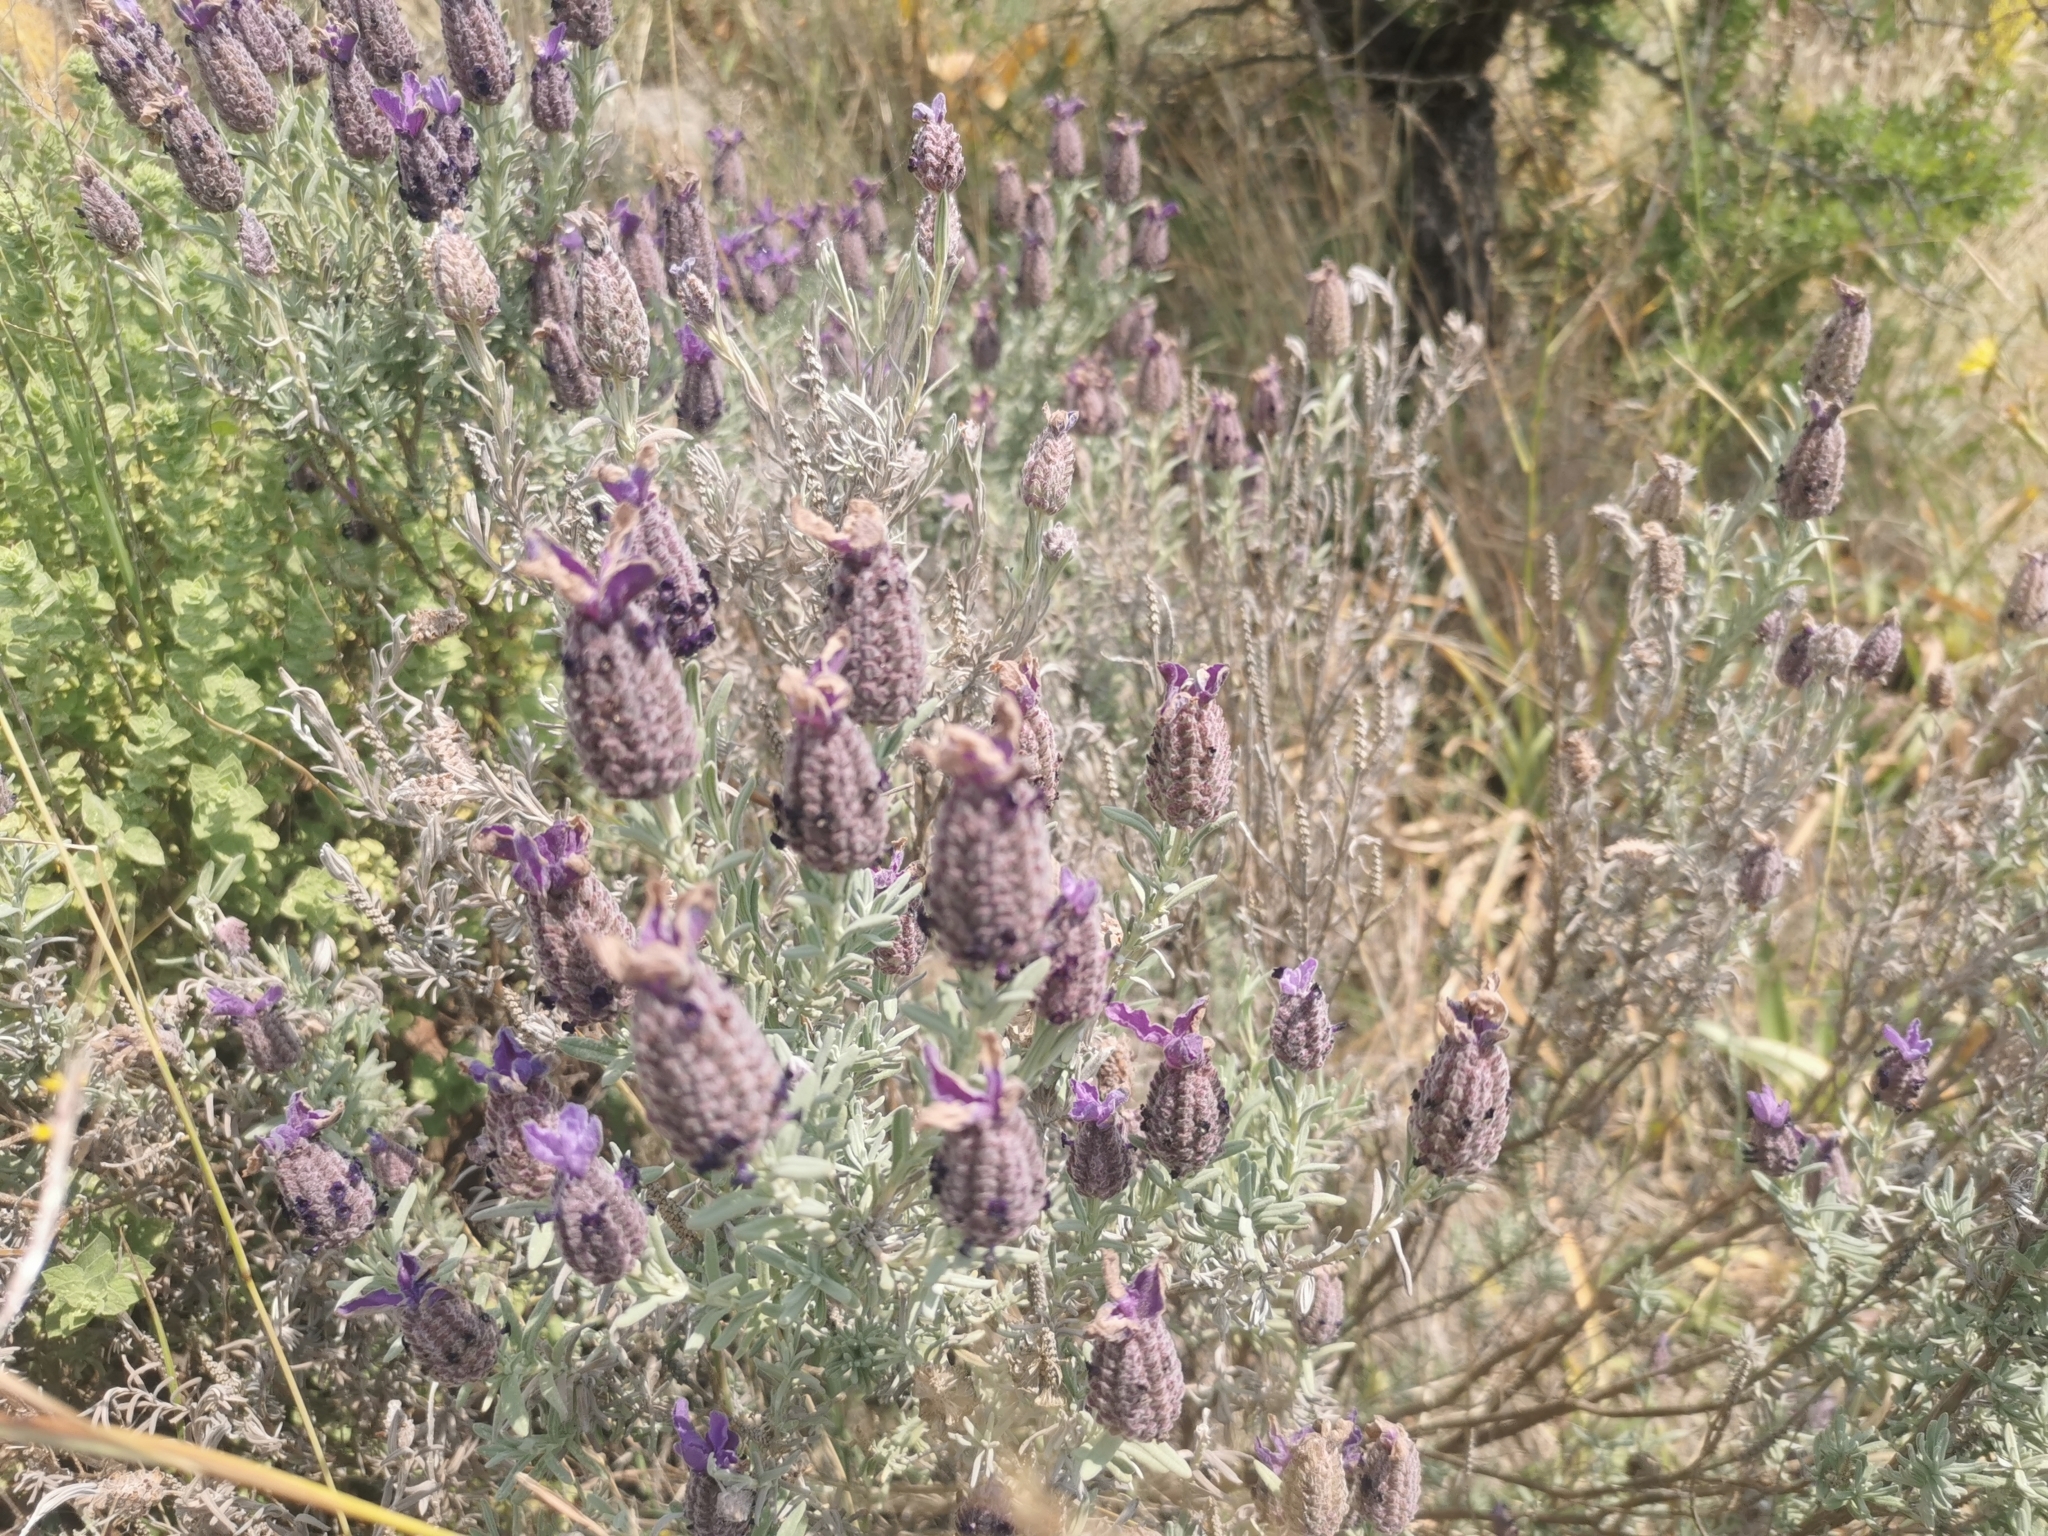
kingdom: Plantae
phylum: Tracheophyta
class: Magnoliopsida
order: Lamiales
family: Lamiaceae
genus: Lavandula
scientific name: Lavandula stoechas
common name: French lavender
